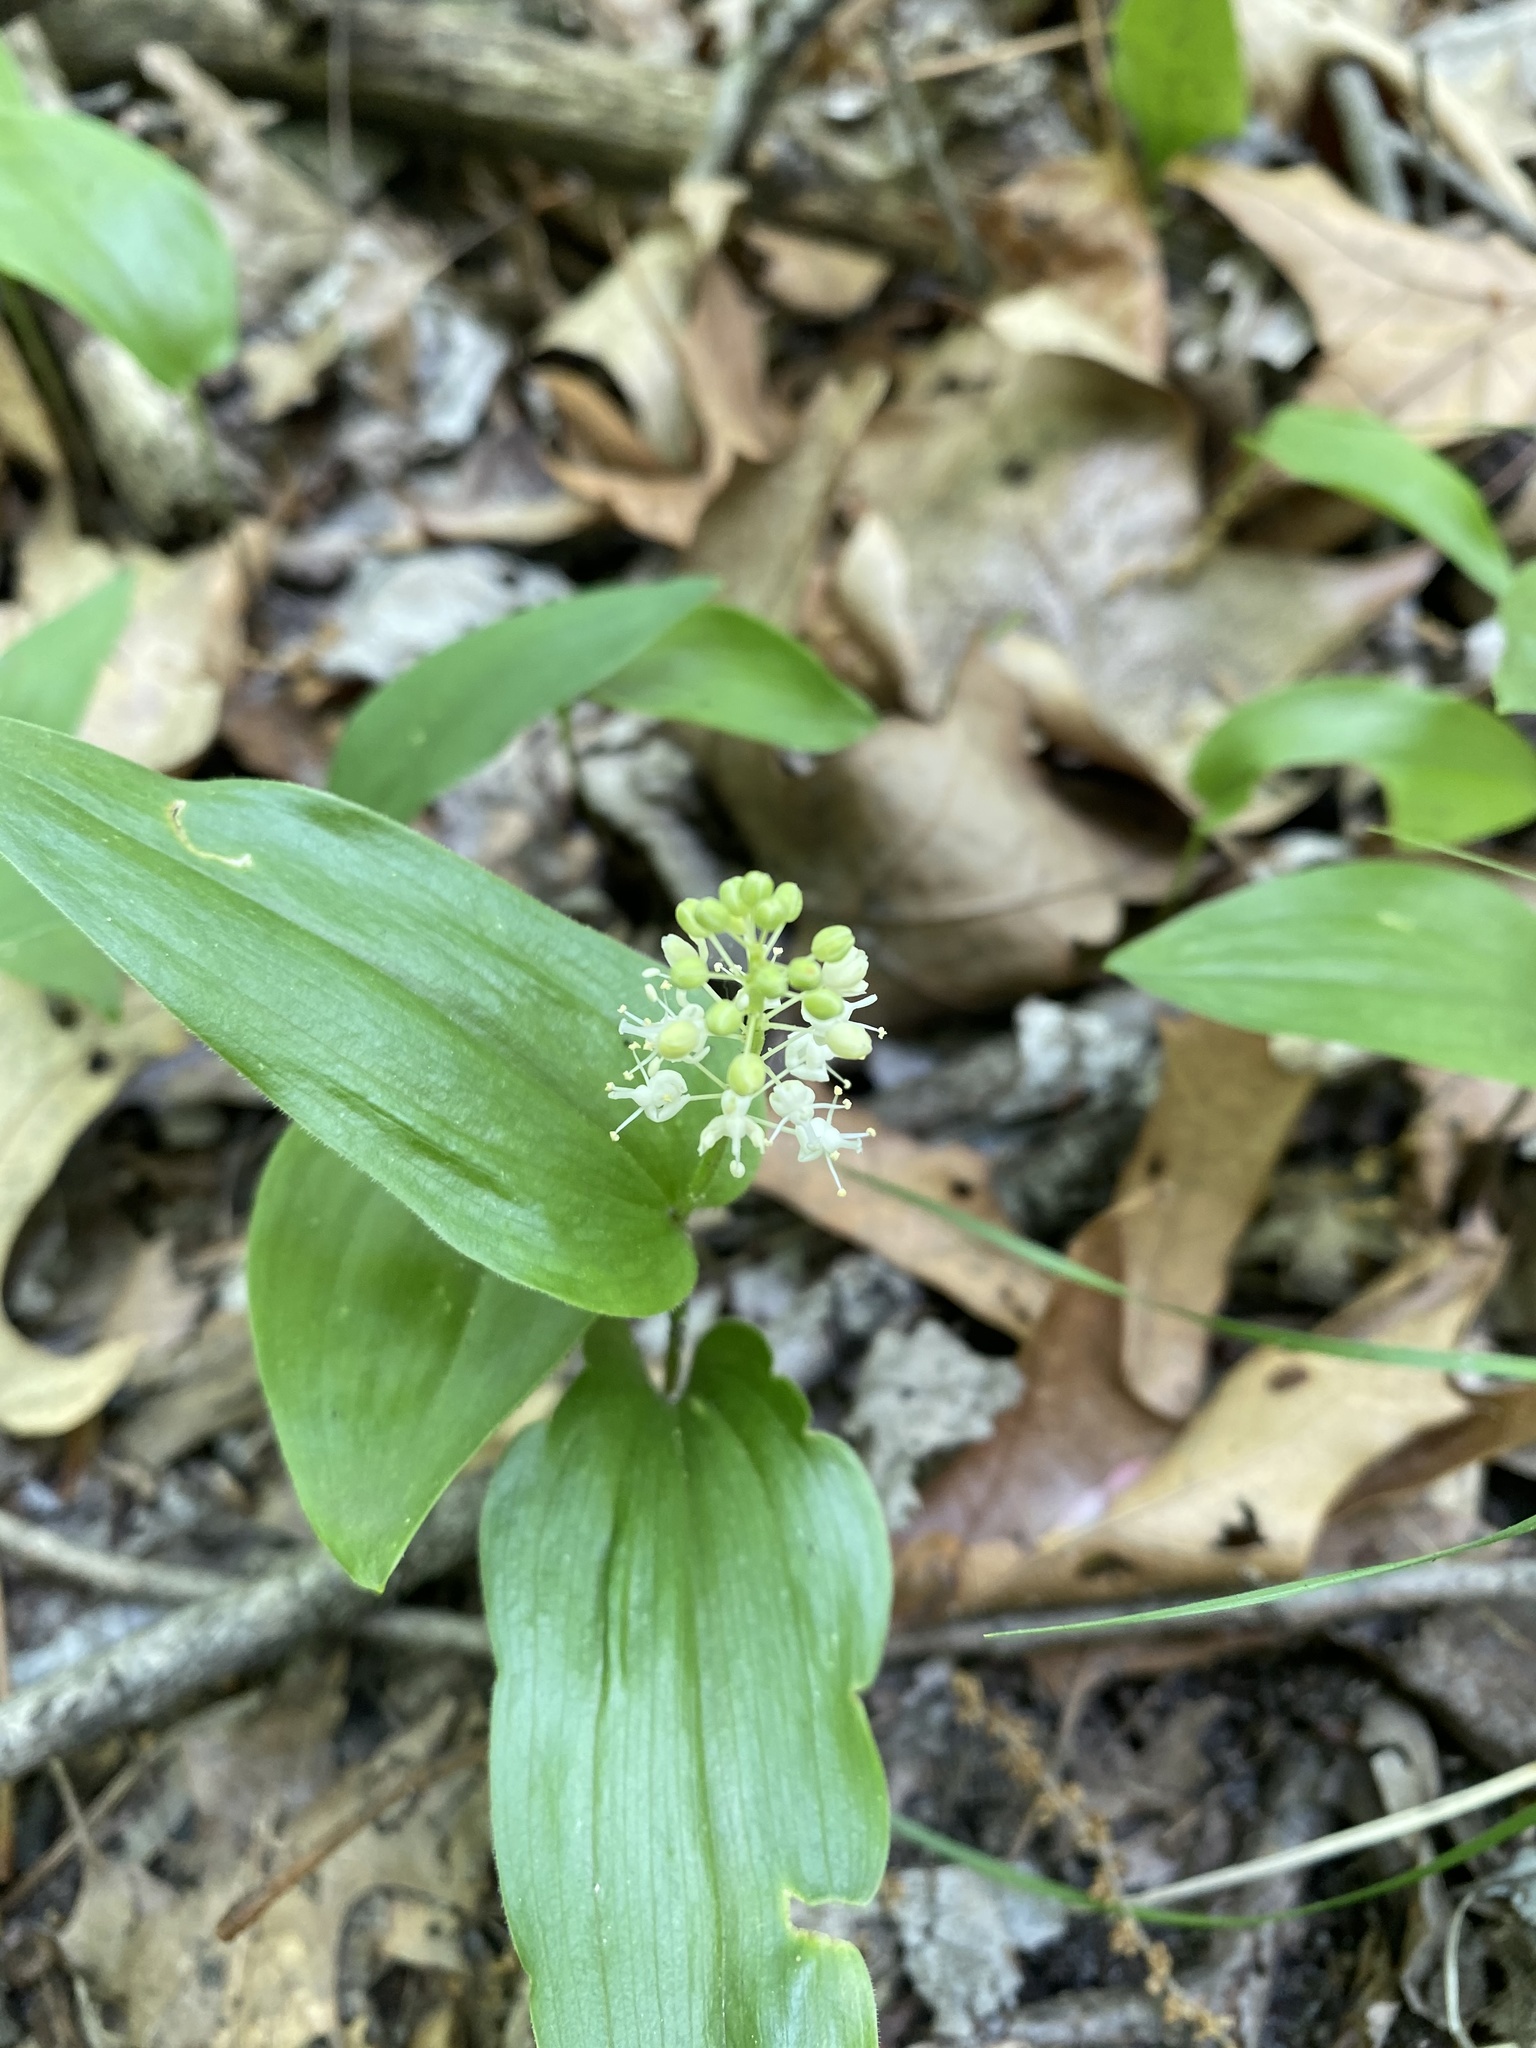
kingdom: Plantae
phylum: Tracheophyta
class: Liliopsida
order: Asparagales
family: Asparagaceae
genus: Maianthemum
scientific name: Maianthemum canadense
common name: False lily-of-the-valley
